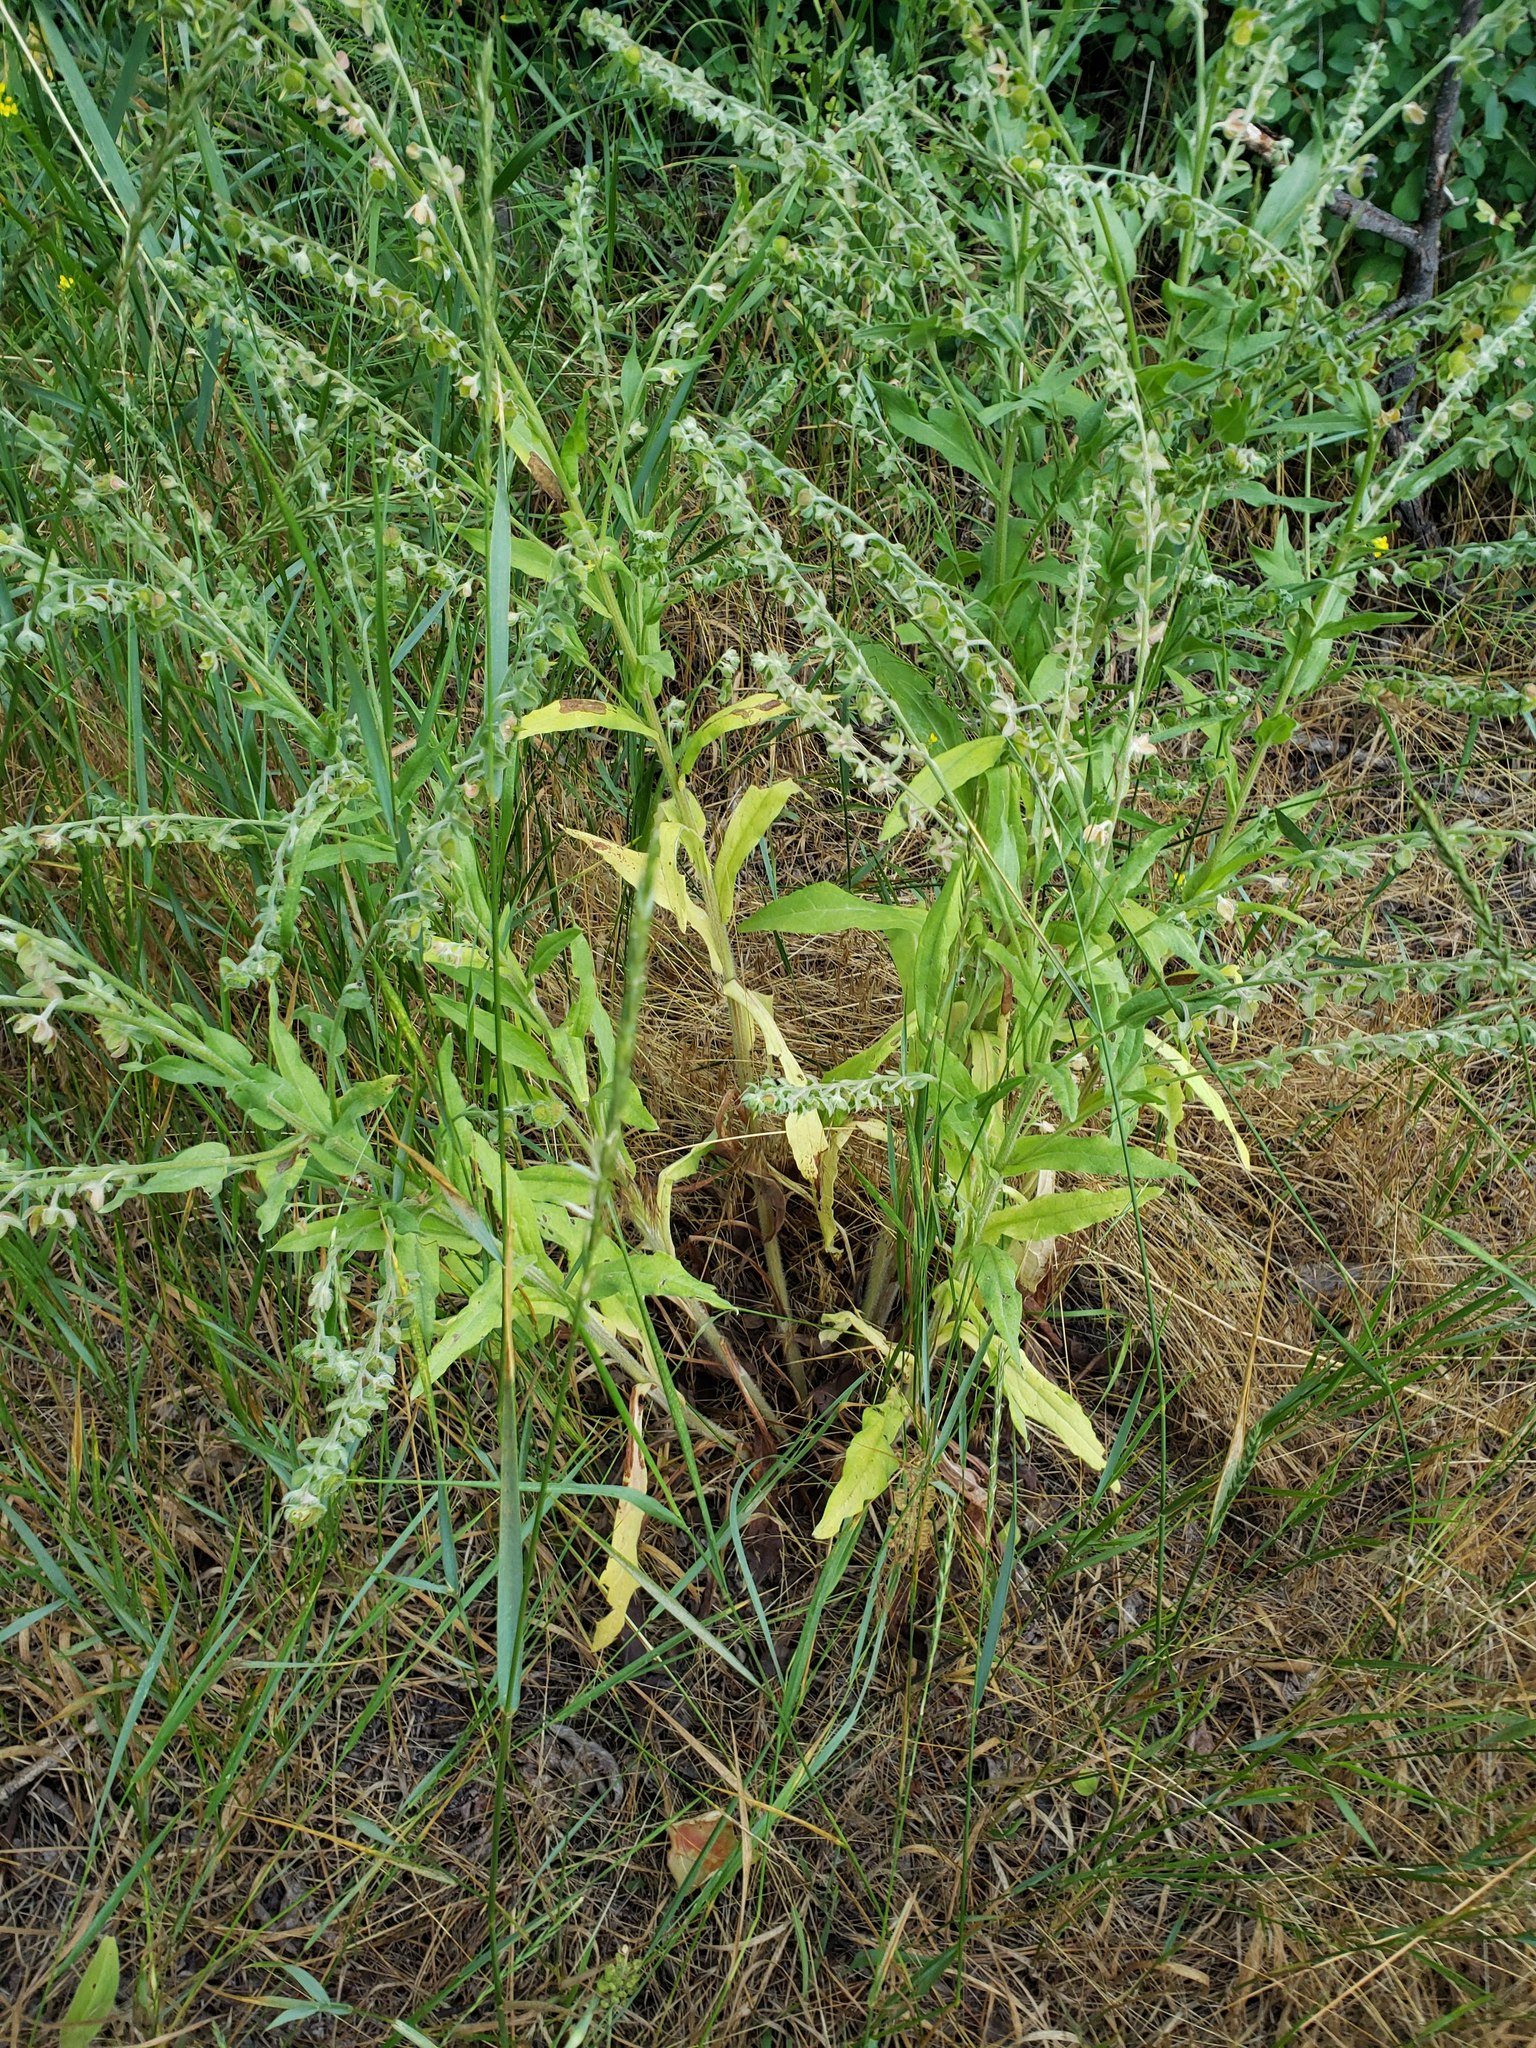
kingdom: Plantae
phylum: Tracheophyta
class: Magnoliopsida
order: Boraginales
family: Boraginaceae
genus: Cynoglossum
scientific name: Cynoglossum officinale
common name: Hound's-tongue
